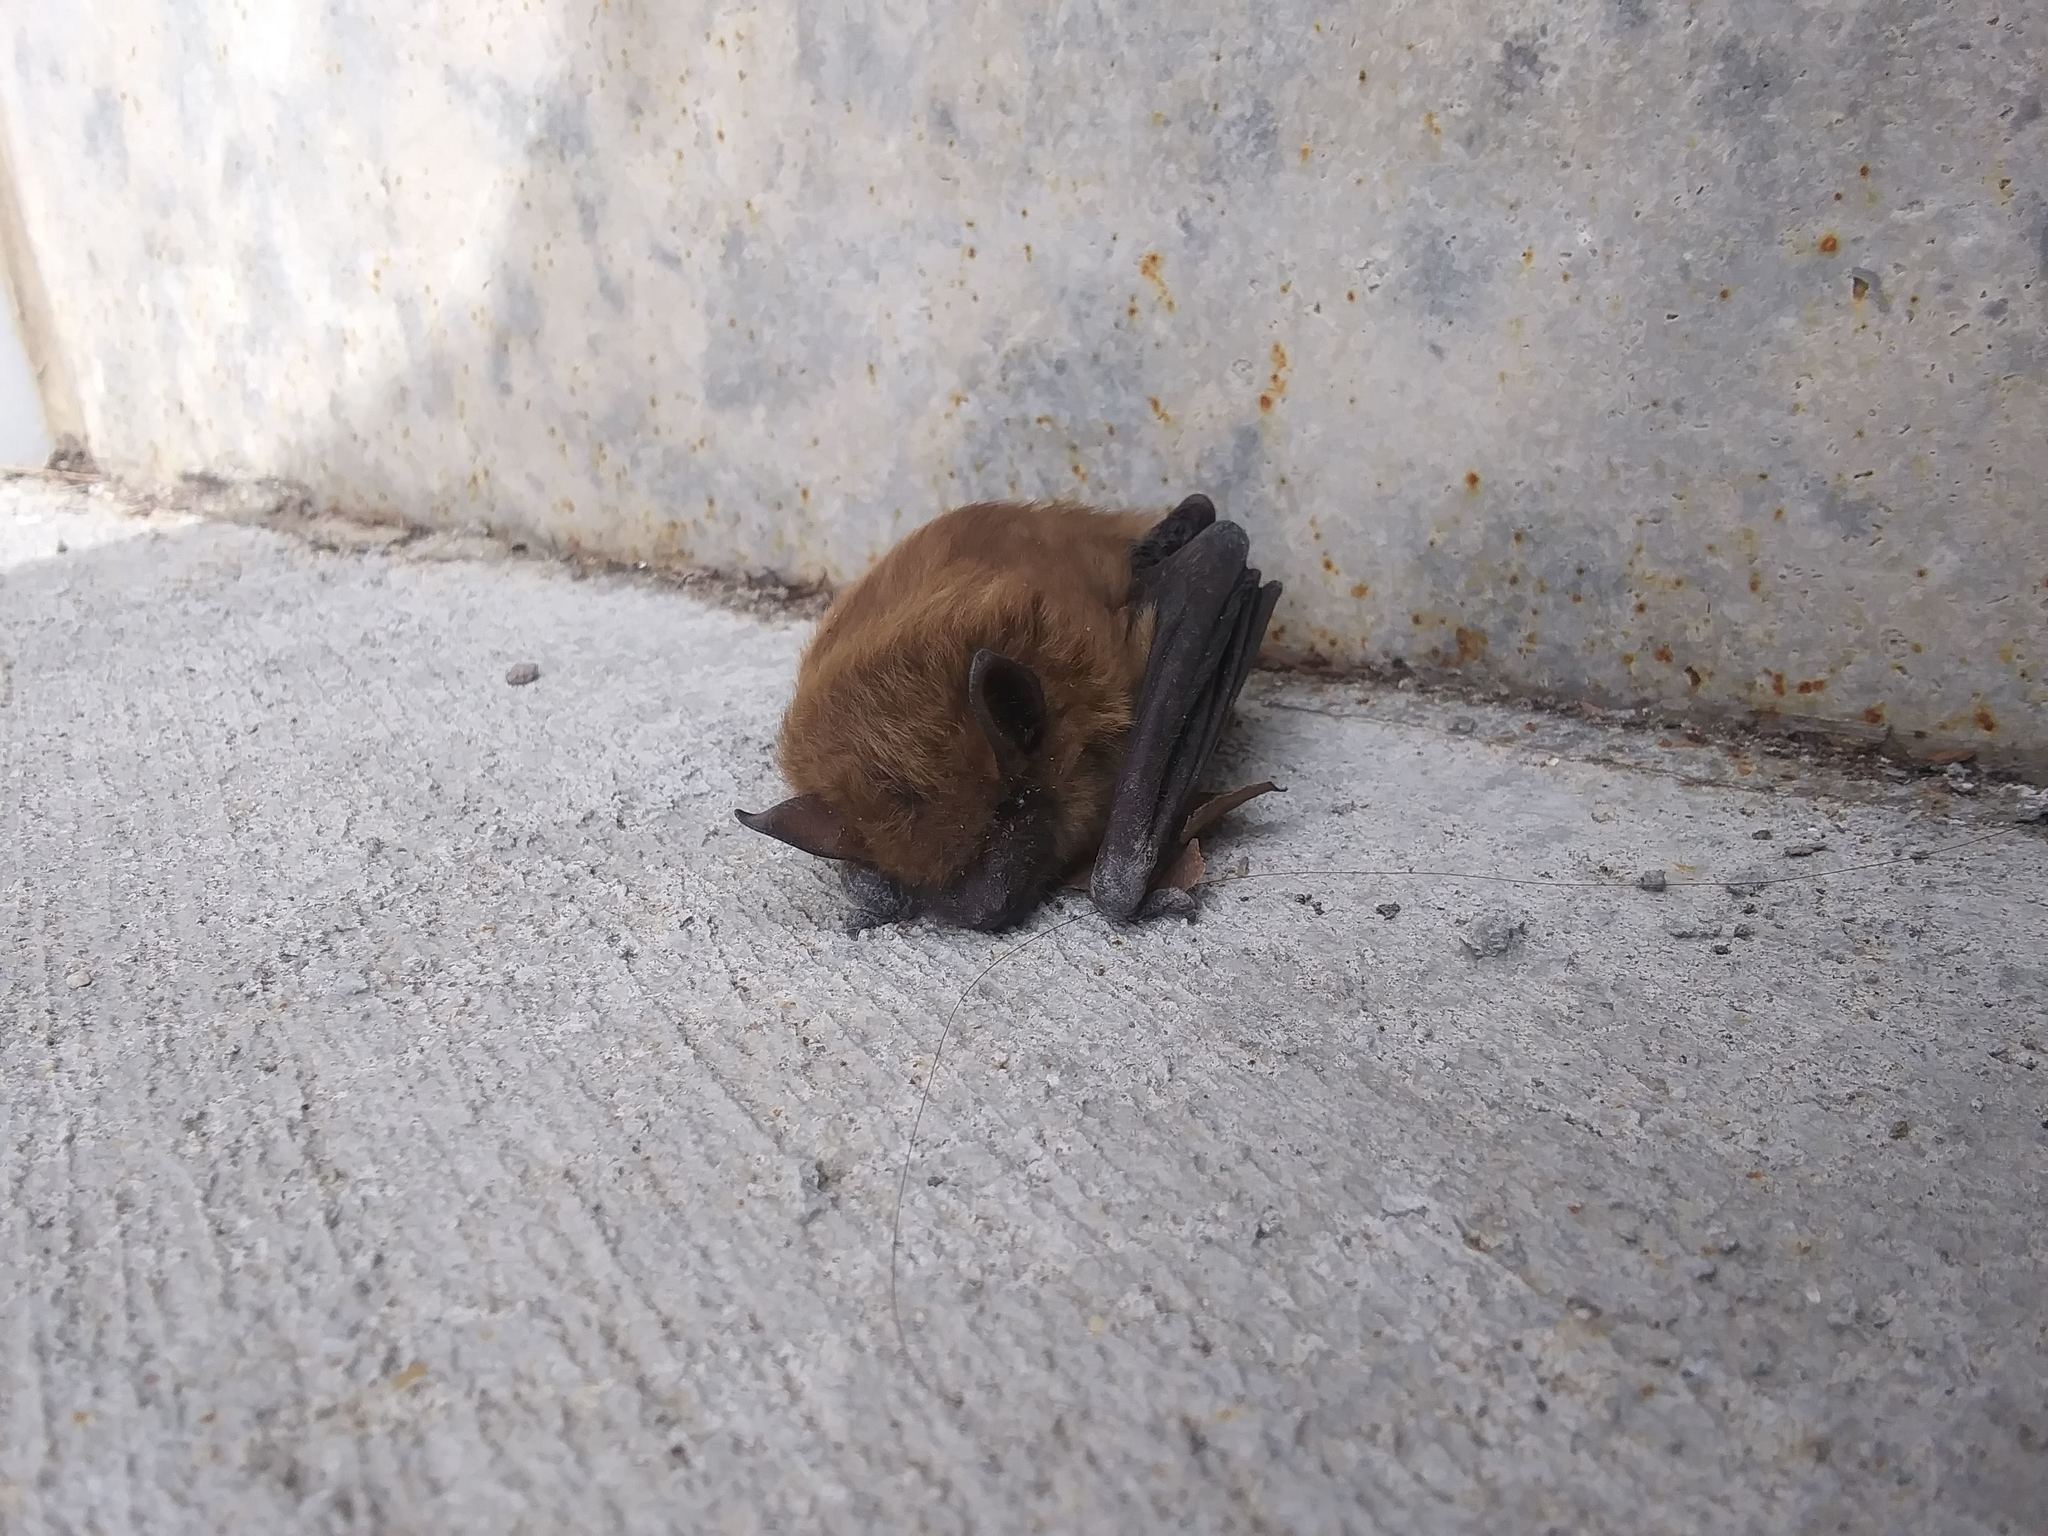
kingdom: Animalia
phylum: Chordata
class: Mammalia
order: Chiroptera
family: Vespertilionidae
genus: Eptesicus
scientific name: Eptesicus fuscus
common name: Big brown bat
